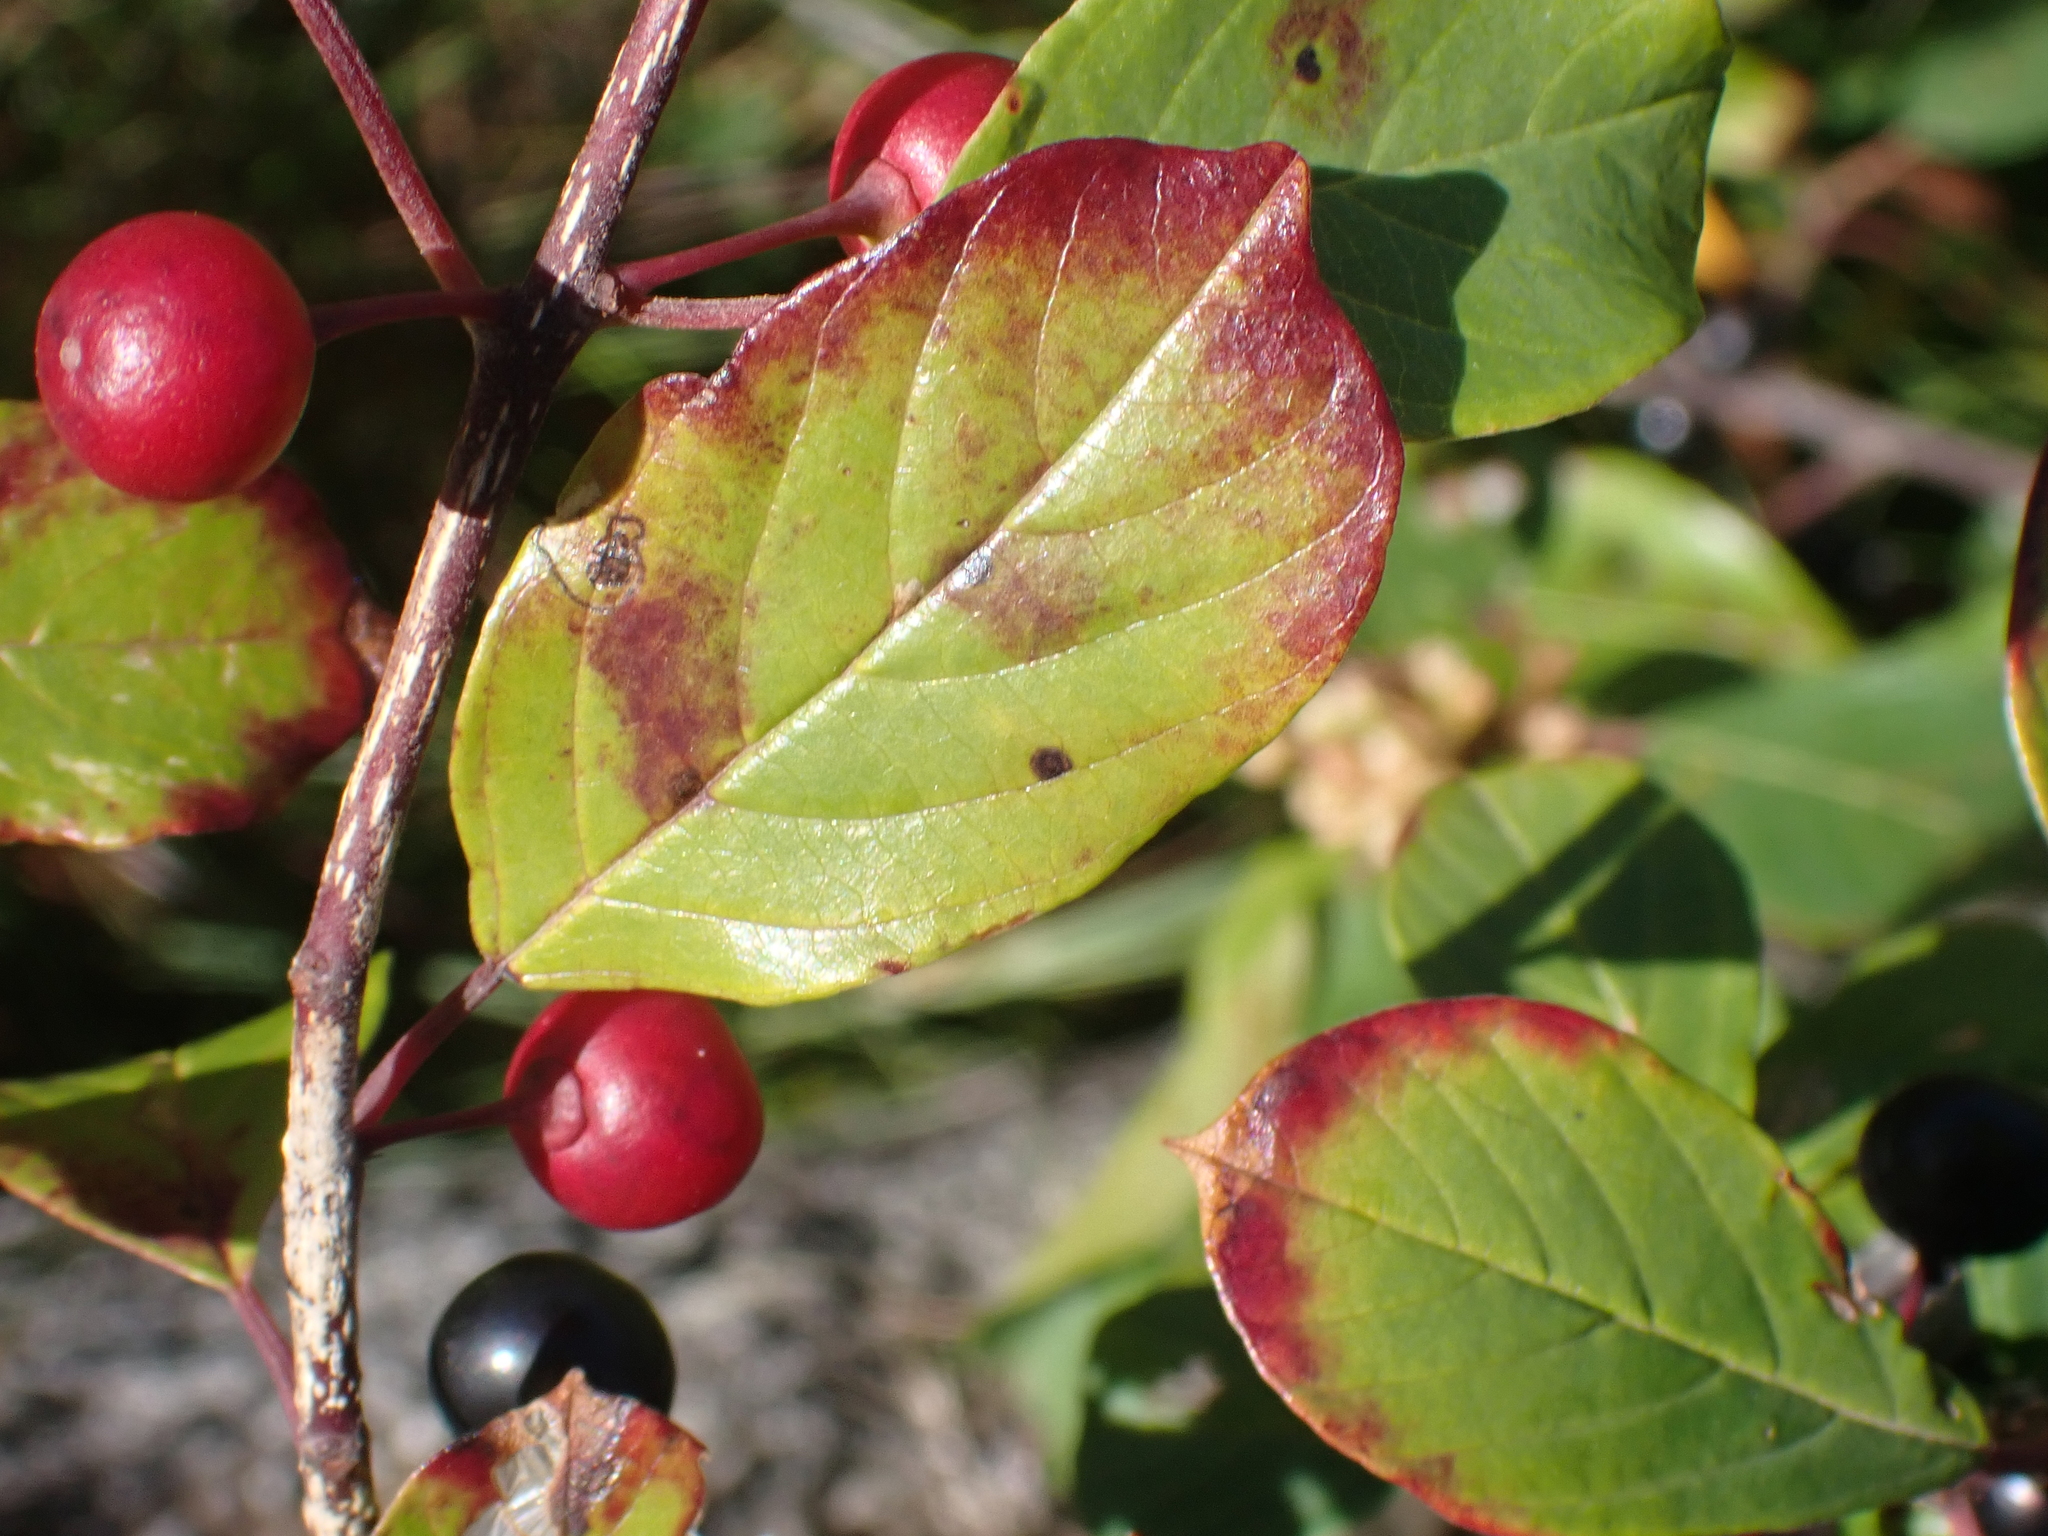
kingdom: Plantae
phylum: Tracheophyta
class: Magnoliopsida
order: Rosales
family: Rhamnaceae
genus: Frangula
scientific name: Frangula alnus
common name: Alder buckthorn
